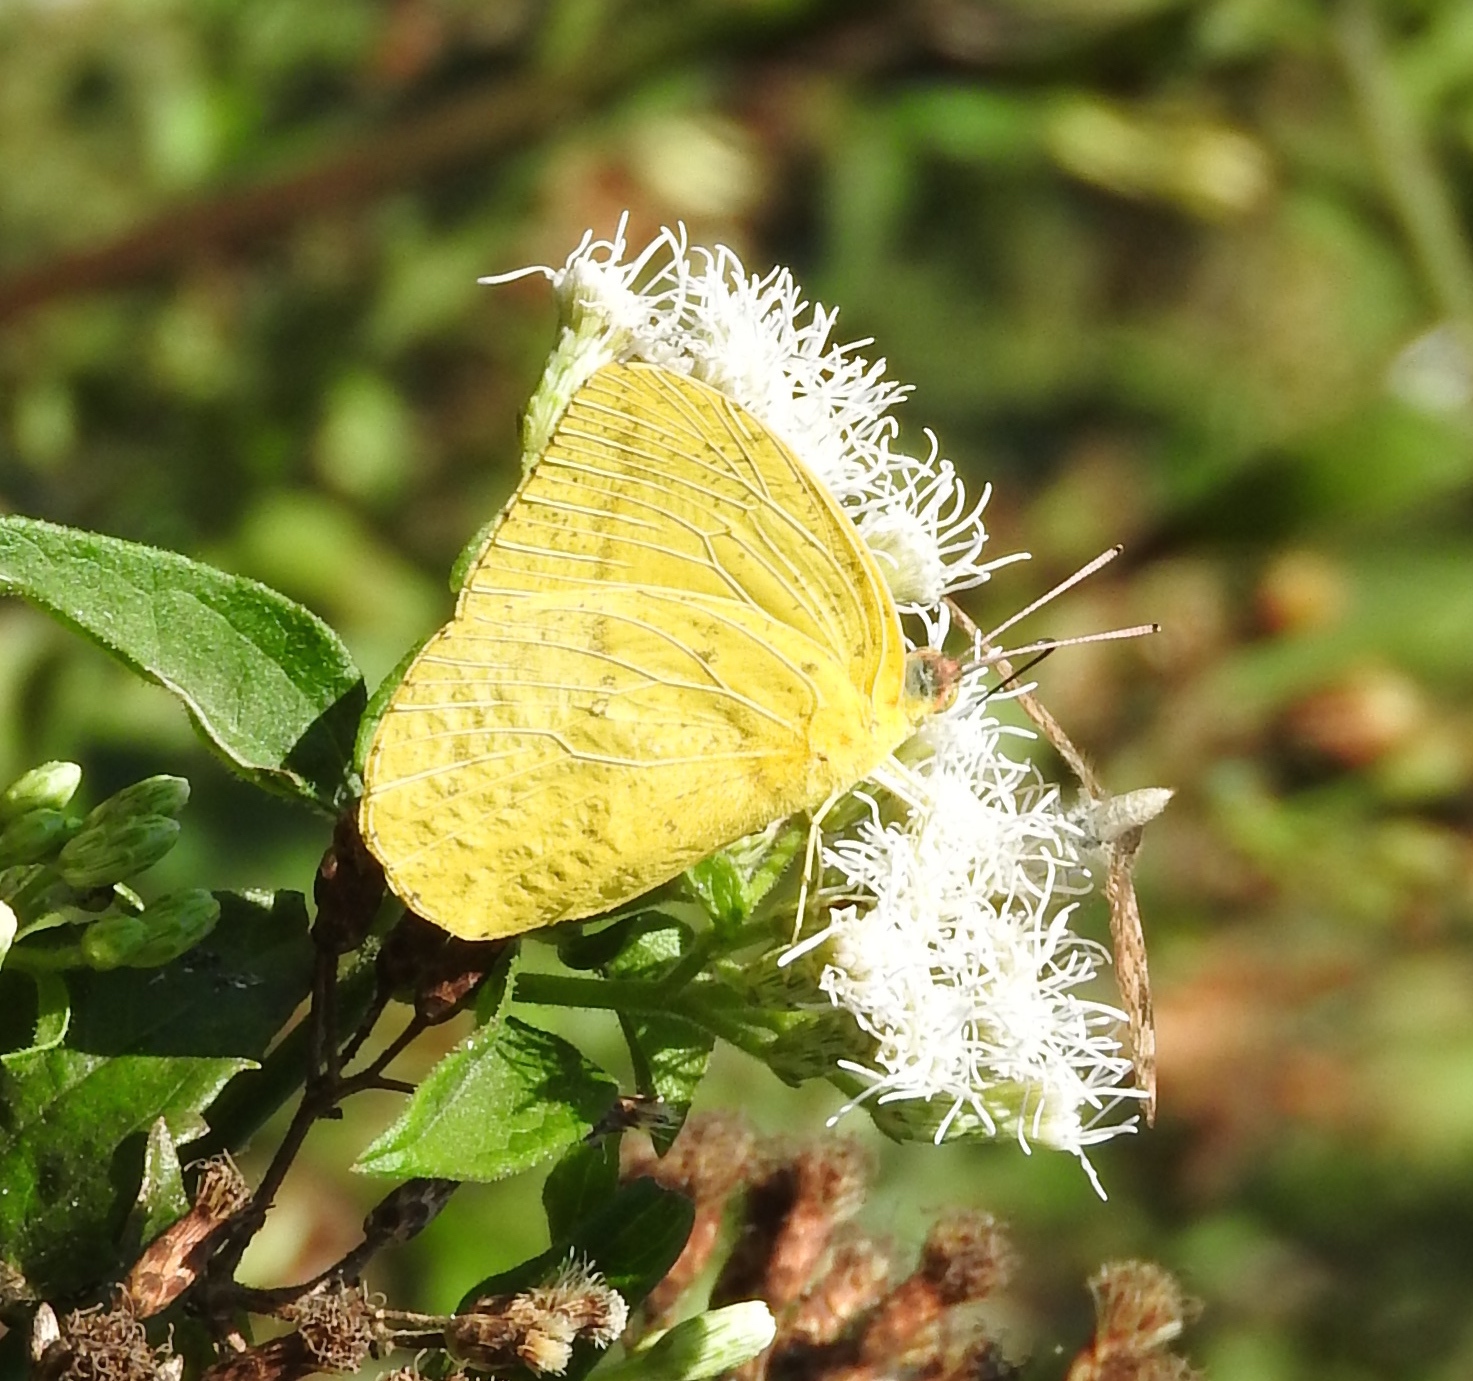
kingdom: Animalia
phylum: Arthropoda
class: Insecta
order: Lepidoptera
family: Pieridae
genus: Phoebis
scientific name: Phoebis agarithe
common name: Large orange sulphur
